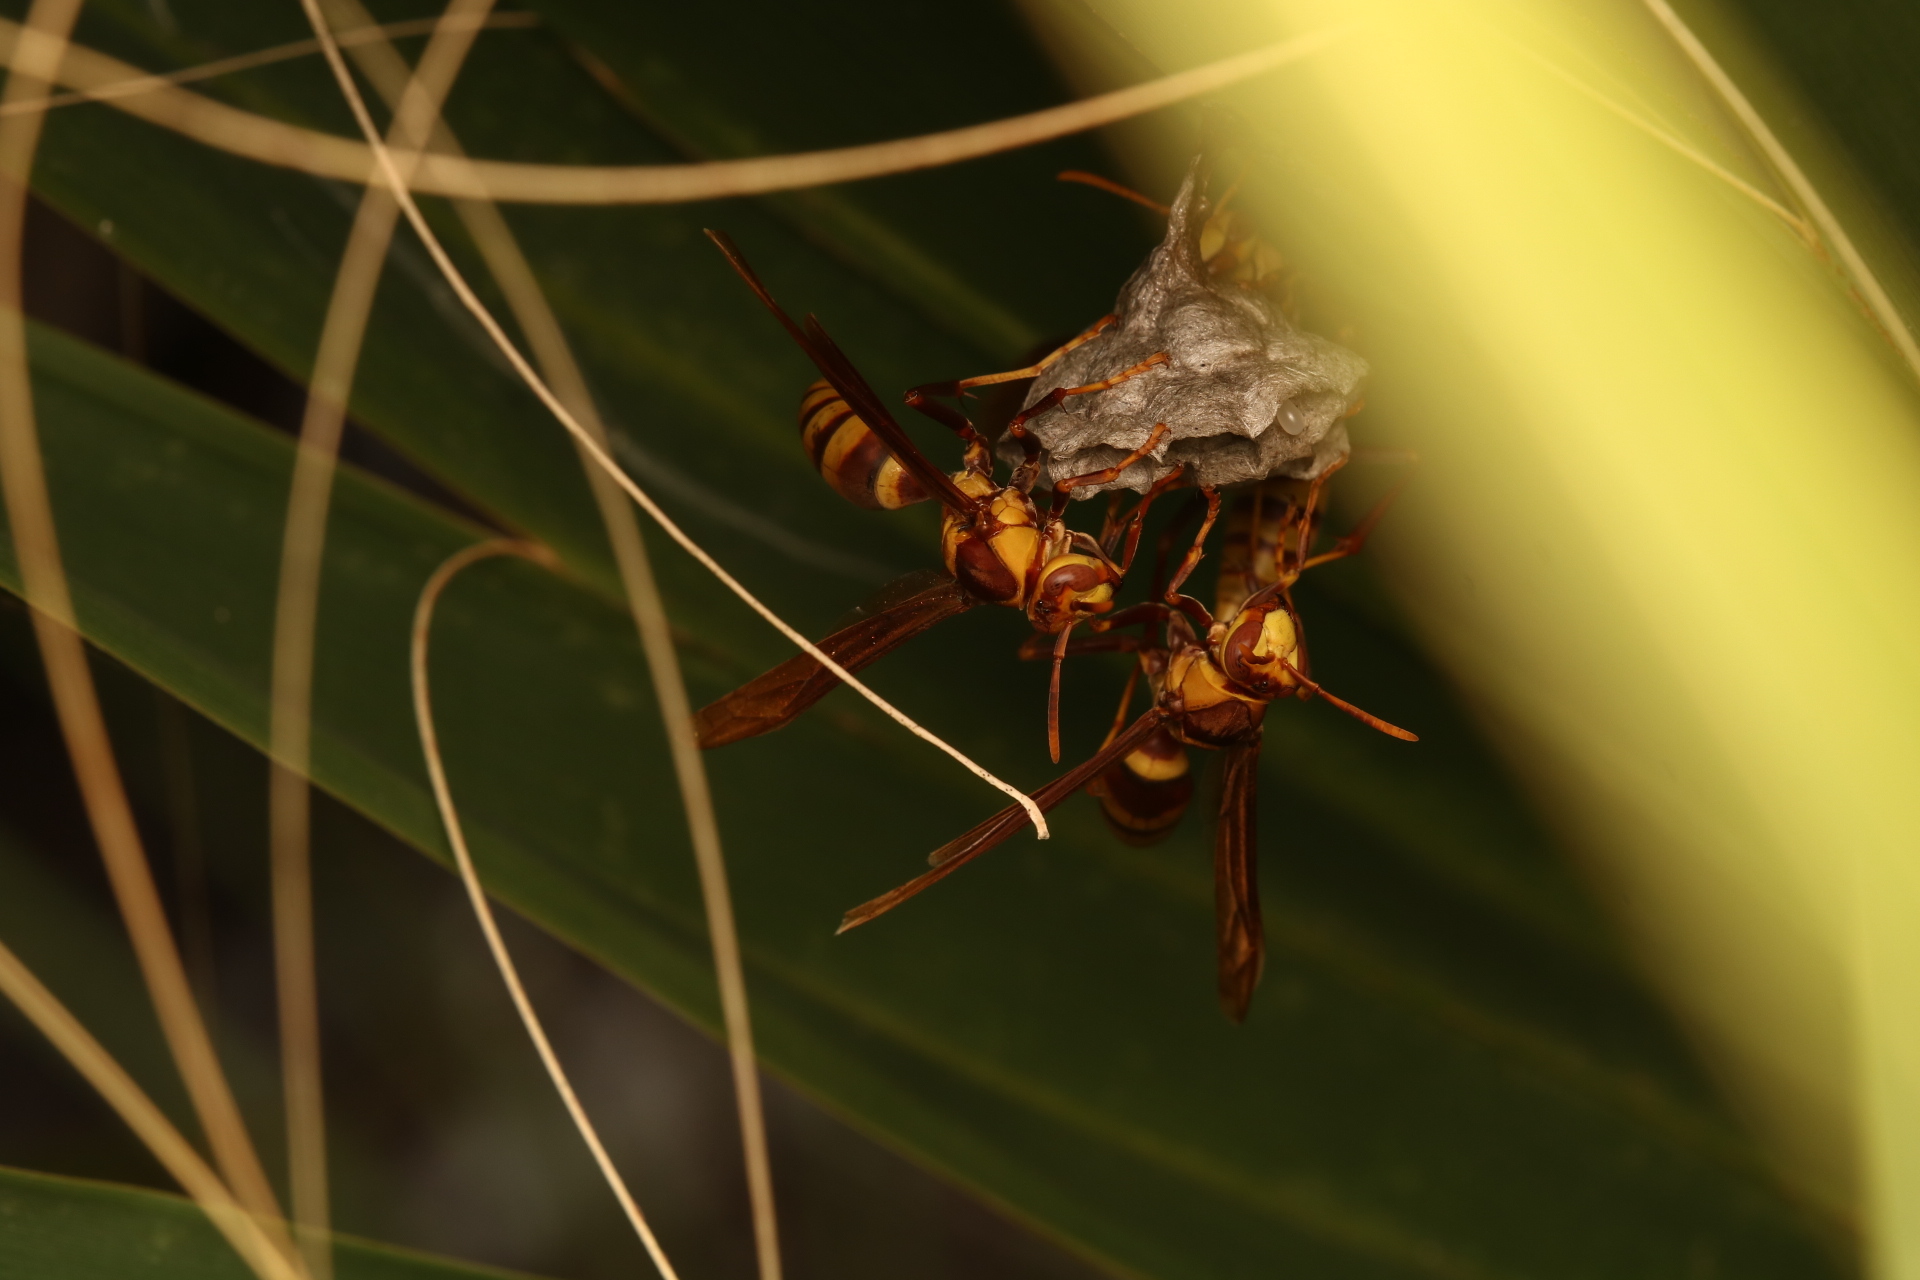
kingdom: Animalia
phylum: Arthropoda
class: Insecta
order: Hymenoptera
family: Eumenidae
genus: Polistes
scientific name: Polistes major
